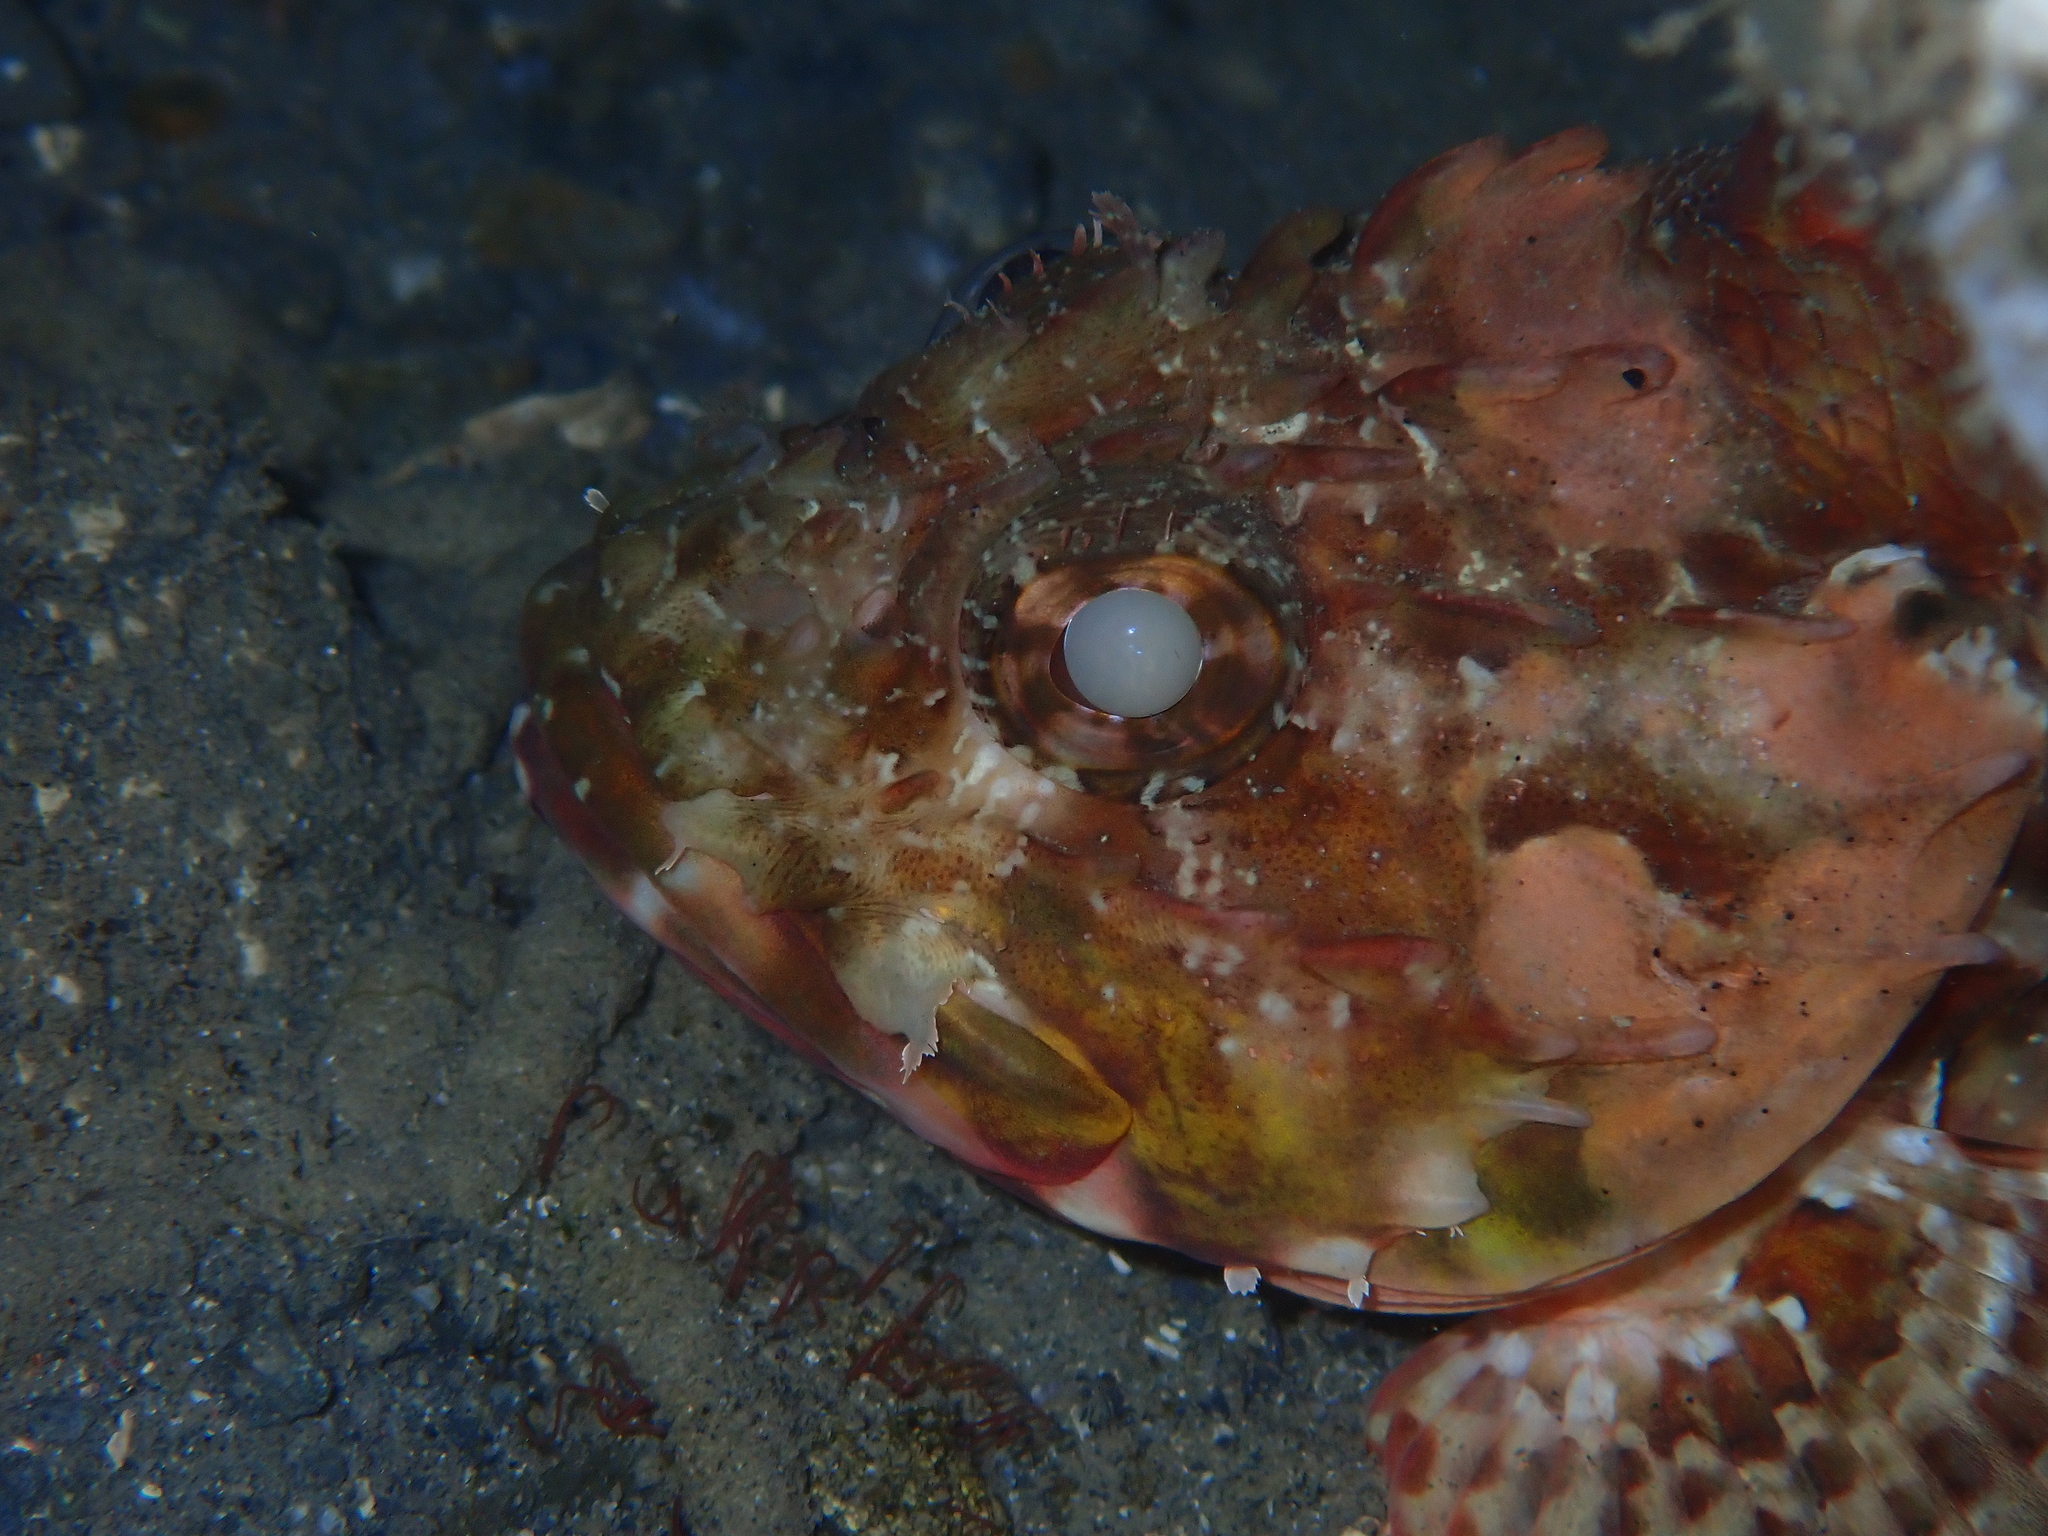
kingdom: Animalia
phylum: Chordata
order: Scorpaeniformes
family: Scorpaenidae
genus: Scorpaena
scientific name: Scorpaena papillosa
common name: Chained scorpionfish
